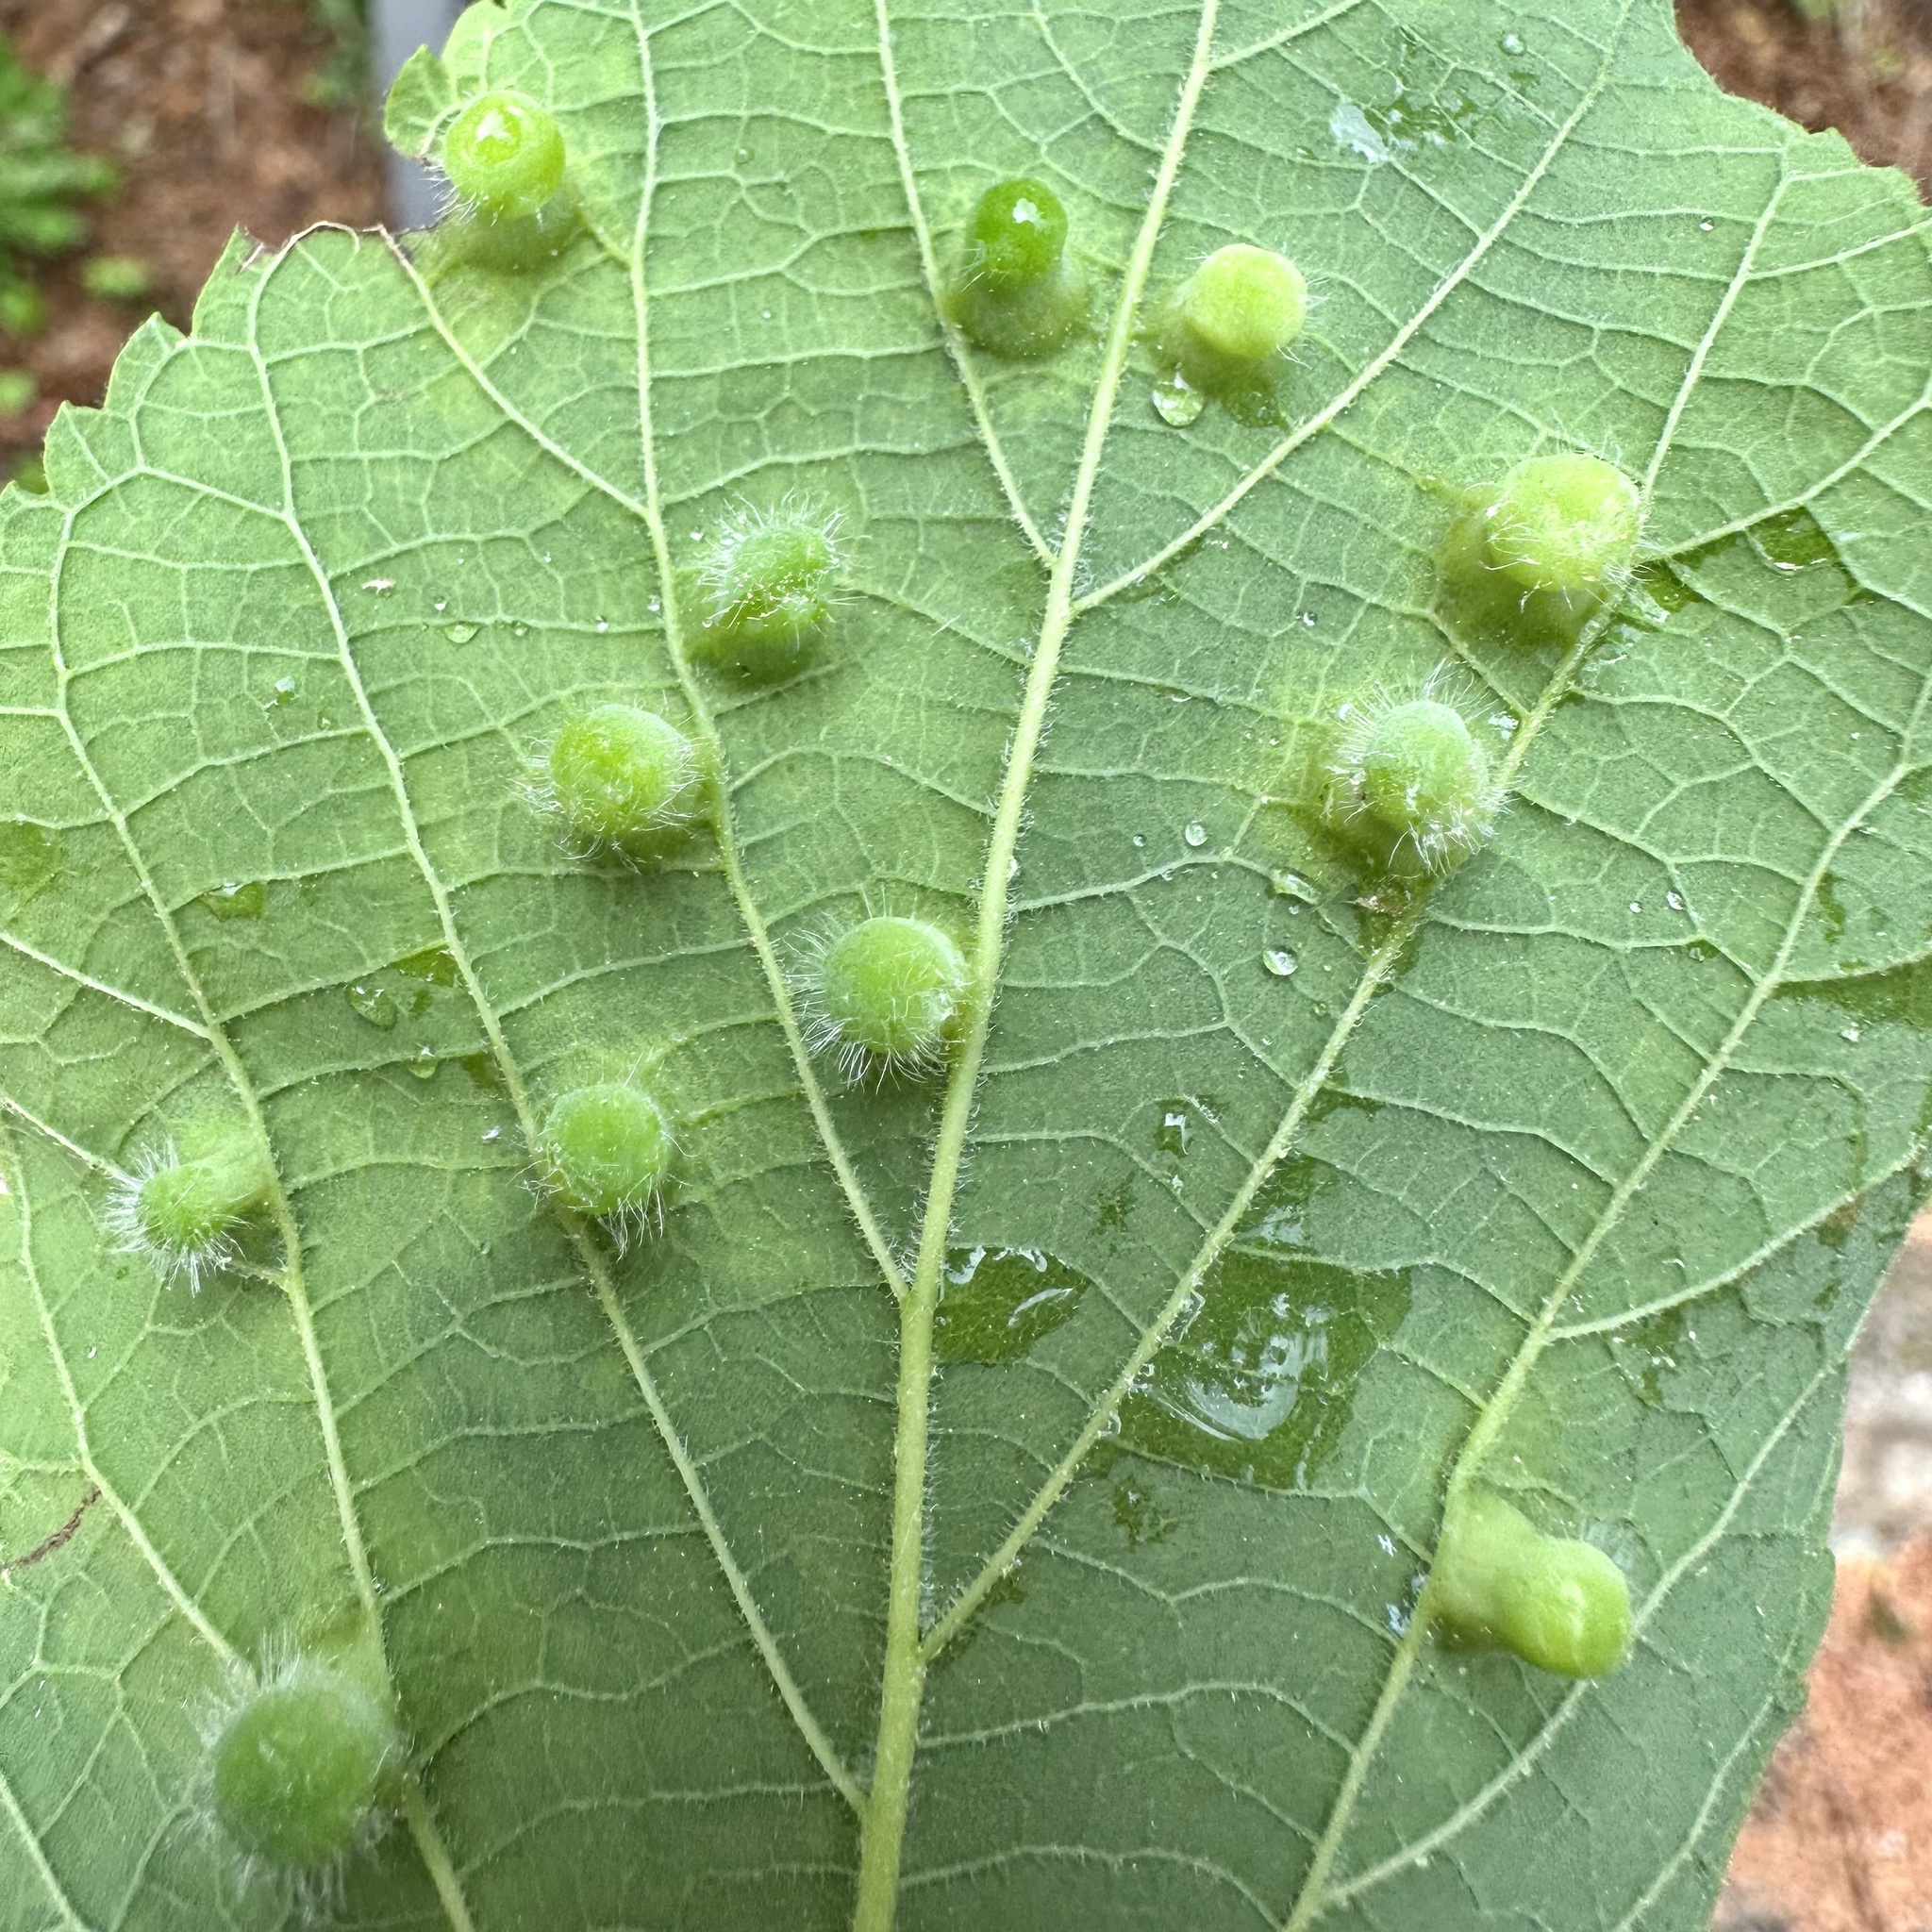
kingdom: Animalia
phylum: Arthropoda
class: Insecta
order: Hemiptera
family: Aphalaridae
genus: Pachypsylla
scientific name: Pachypsylla celtidismamma
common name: Hackberry nipplegall psyllid
